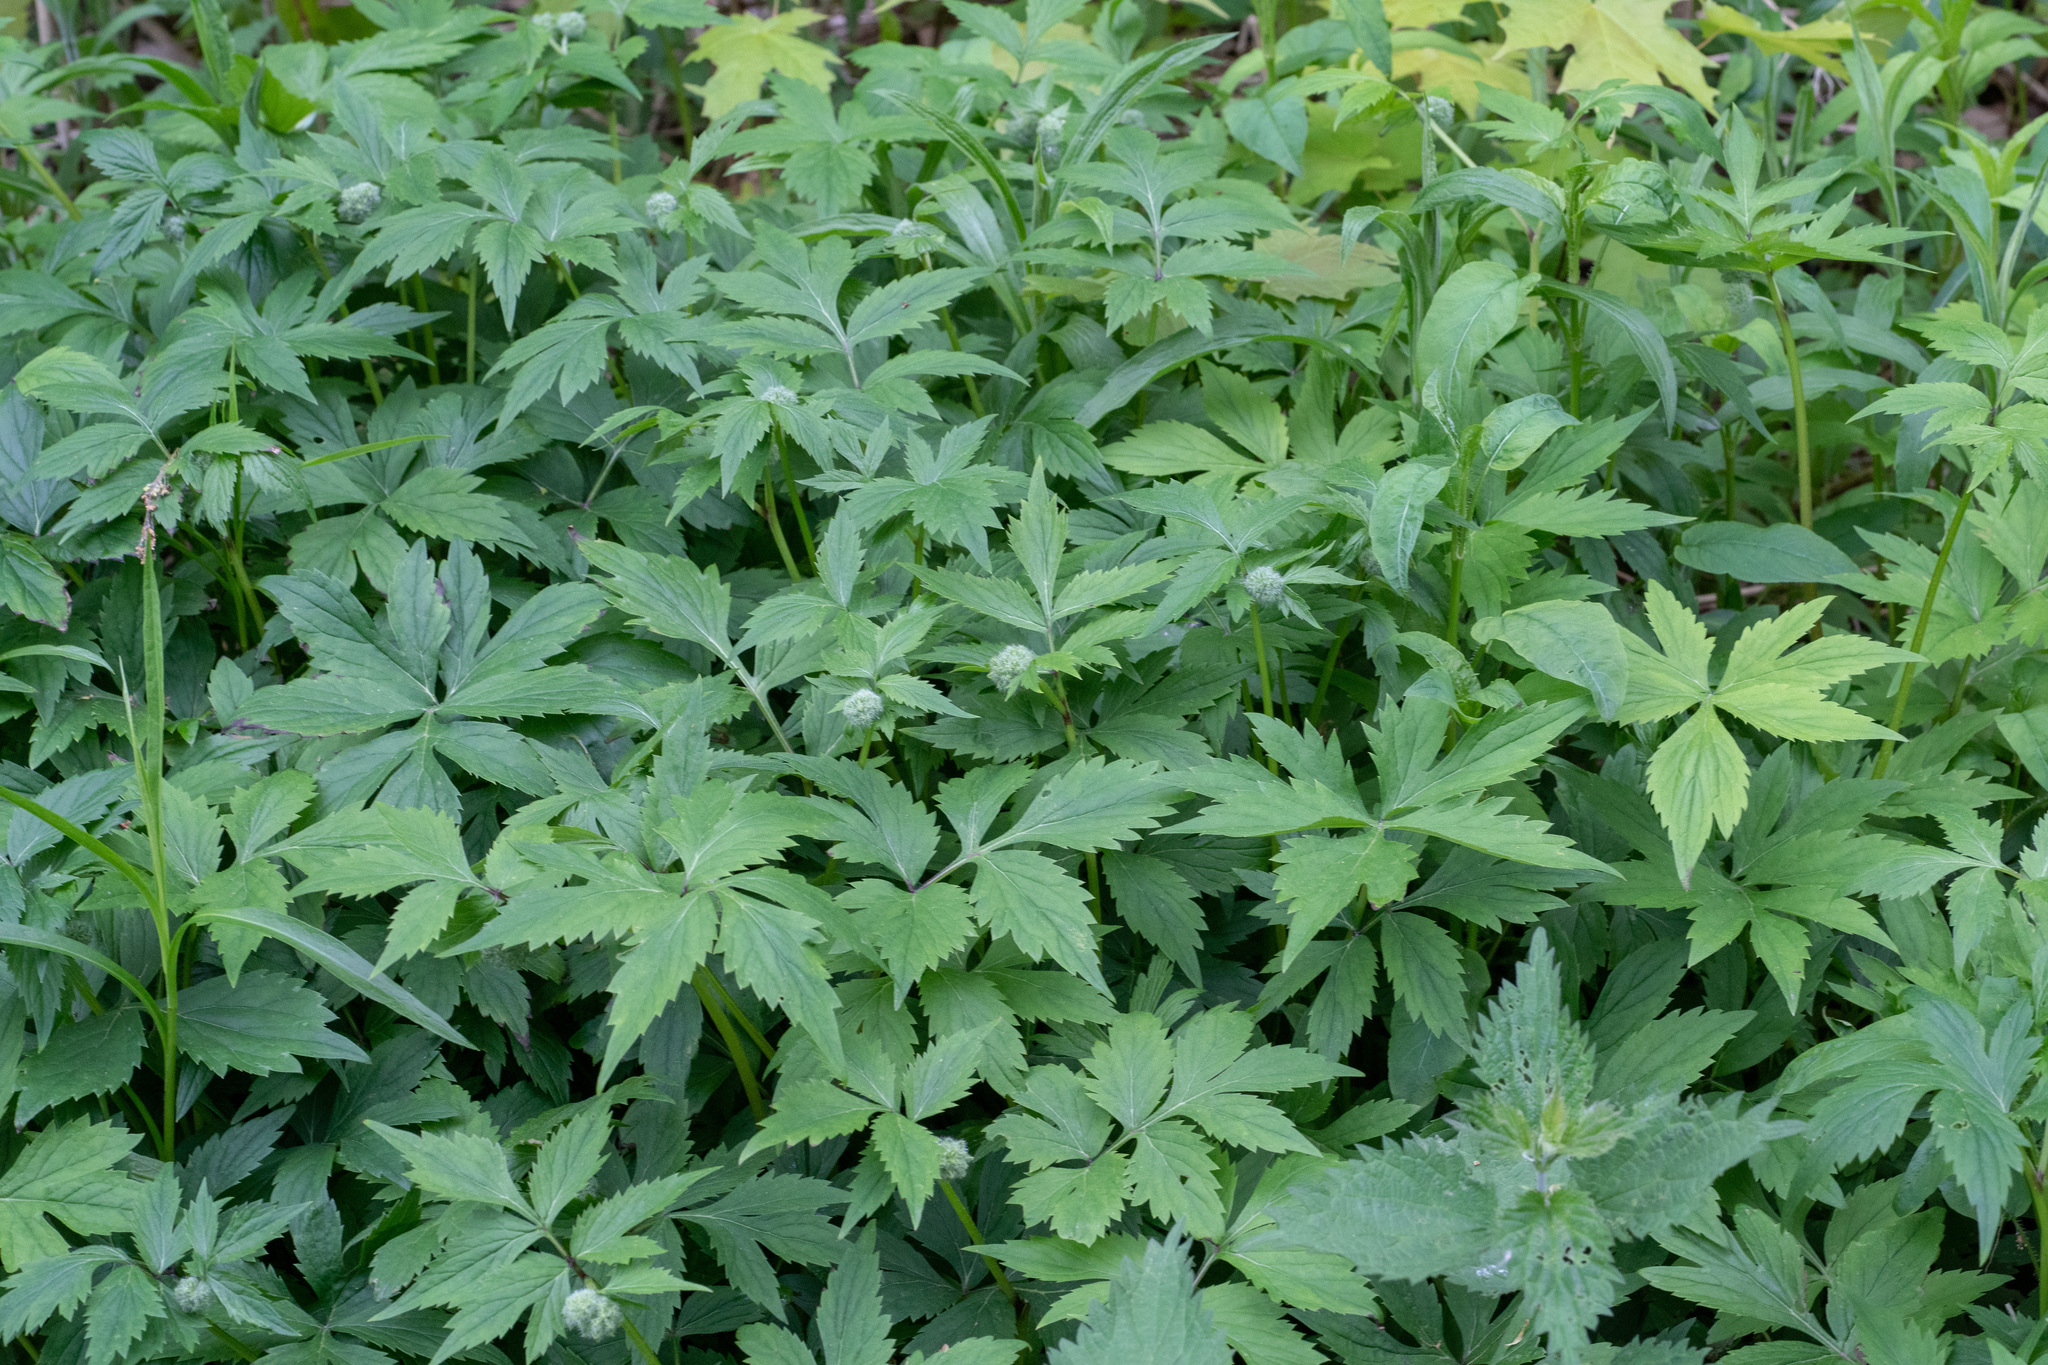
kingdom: Plantae
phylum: Tracheophyta
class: Magnoliopsida
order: Boraginales
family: Hydrophyllaceae
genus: Hydrophyllum
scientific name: Hydrophyllum virginianum
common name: Virginia waterleaf
